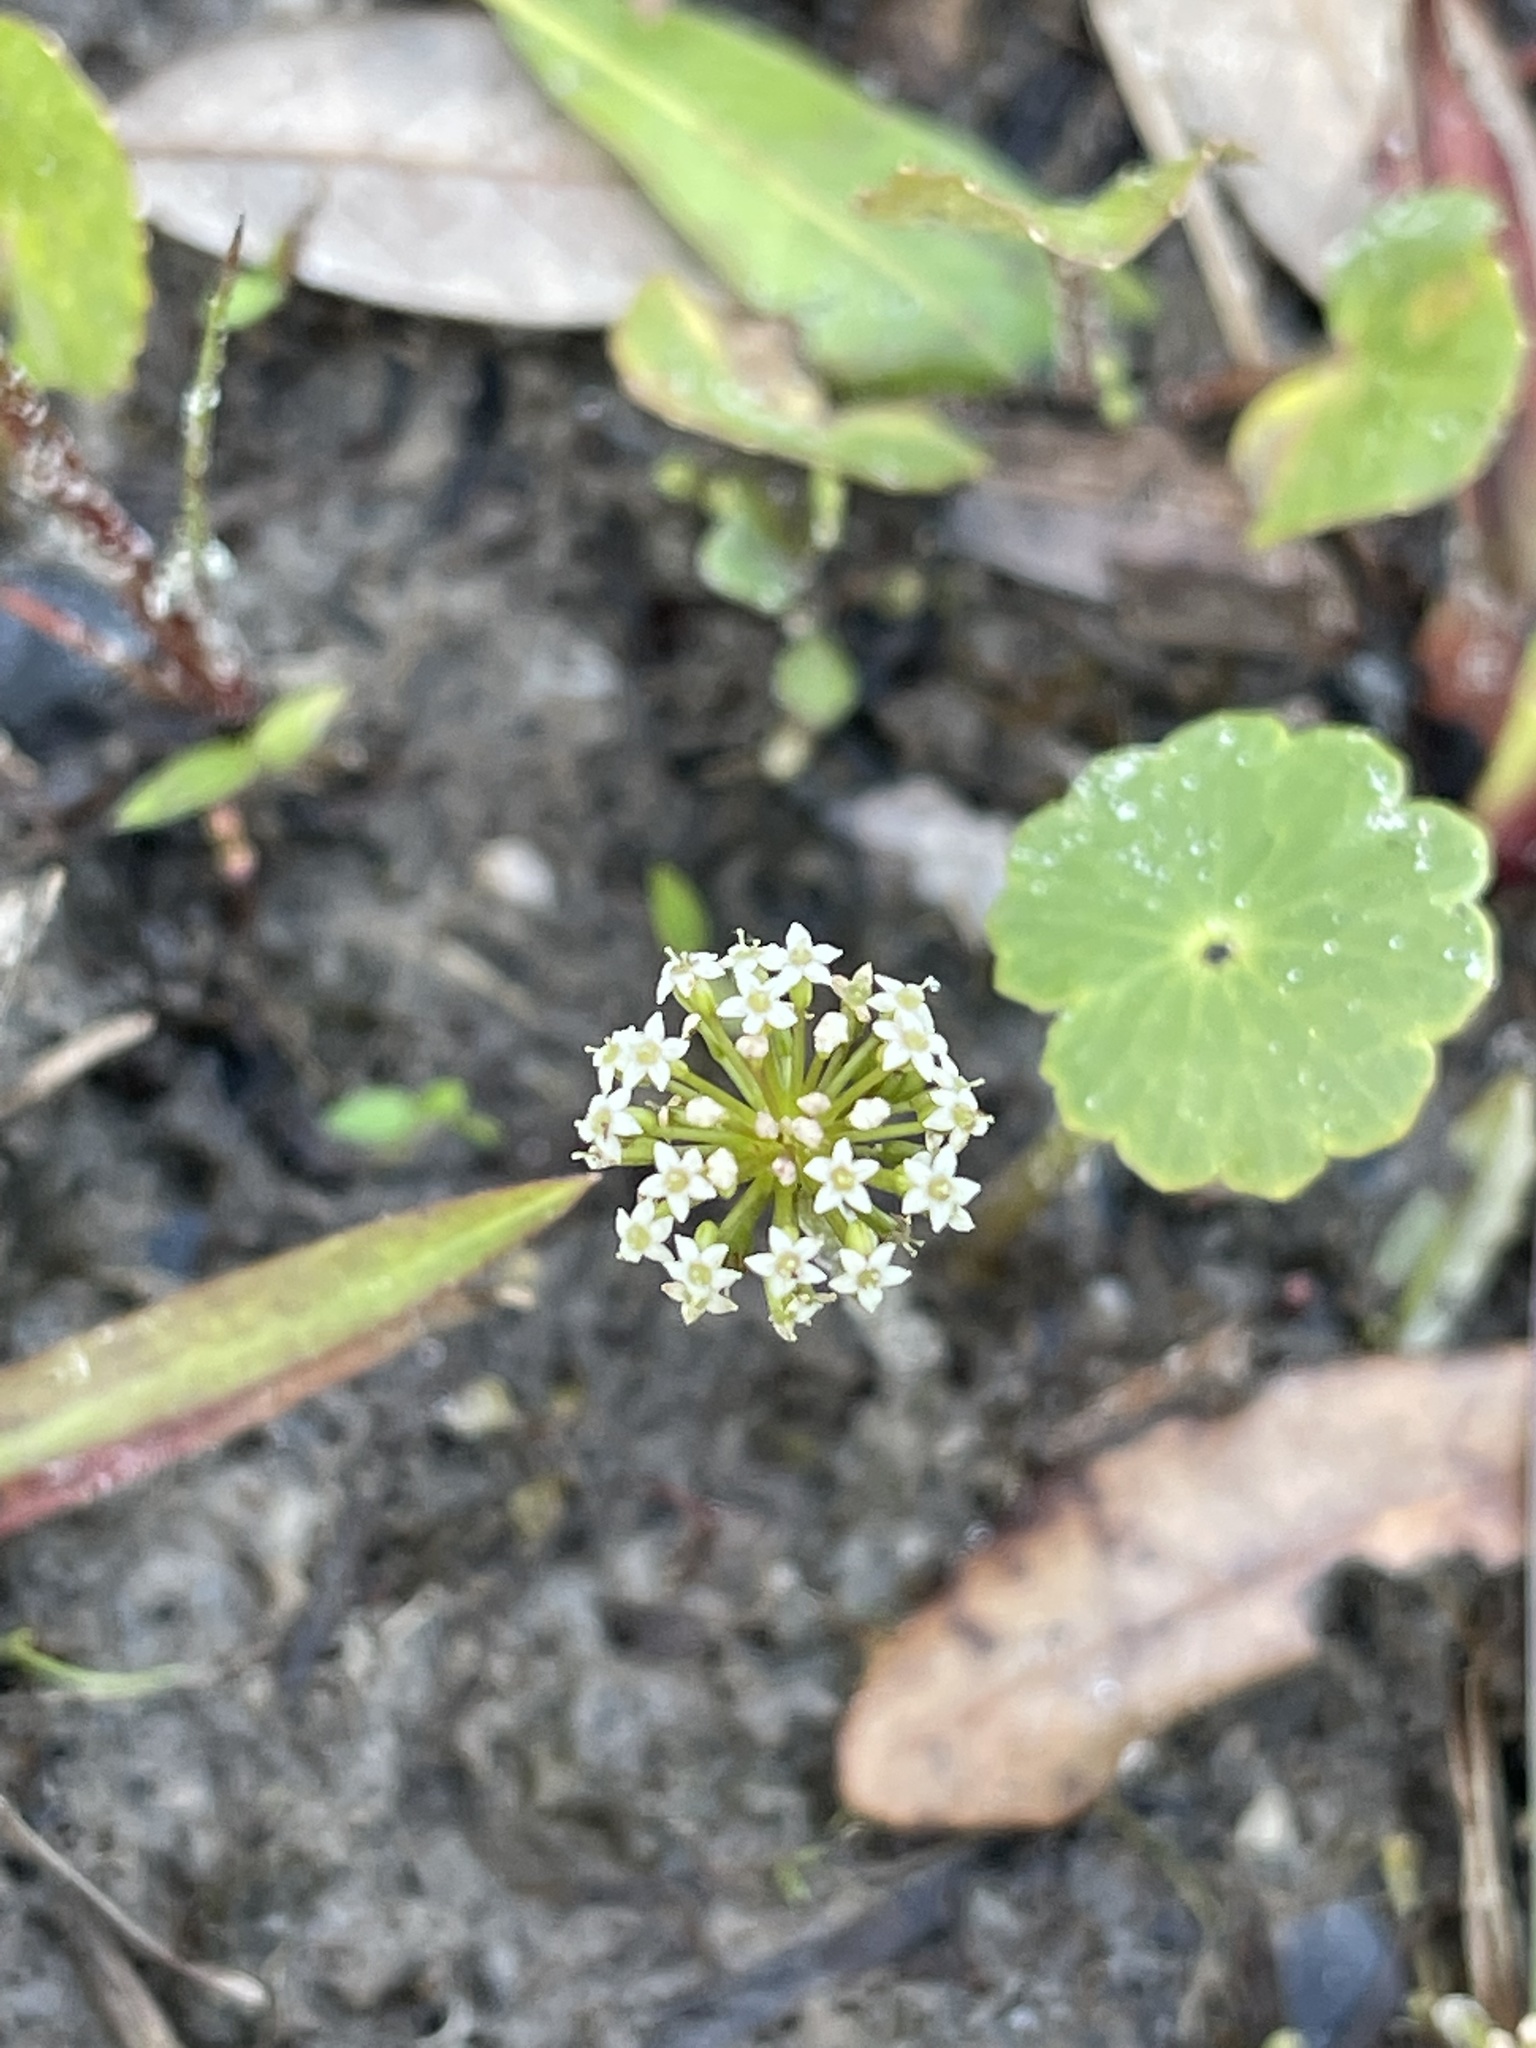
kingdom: Plantae
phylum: Tracheophyta
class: Magnoliopsida
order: Apiales
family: Araliaceae
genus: Hydrocotyle
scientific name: Hydrocotyle umbellata
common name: Water pennywort
